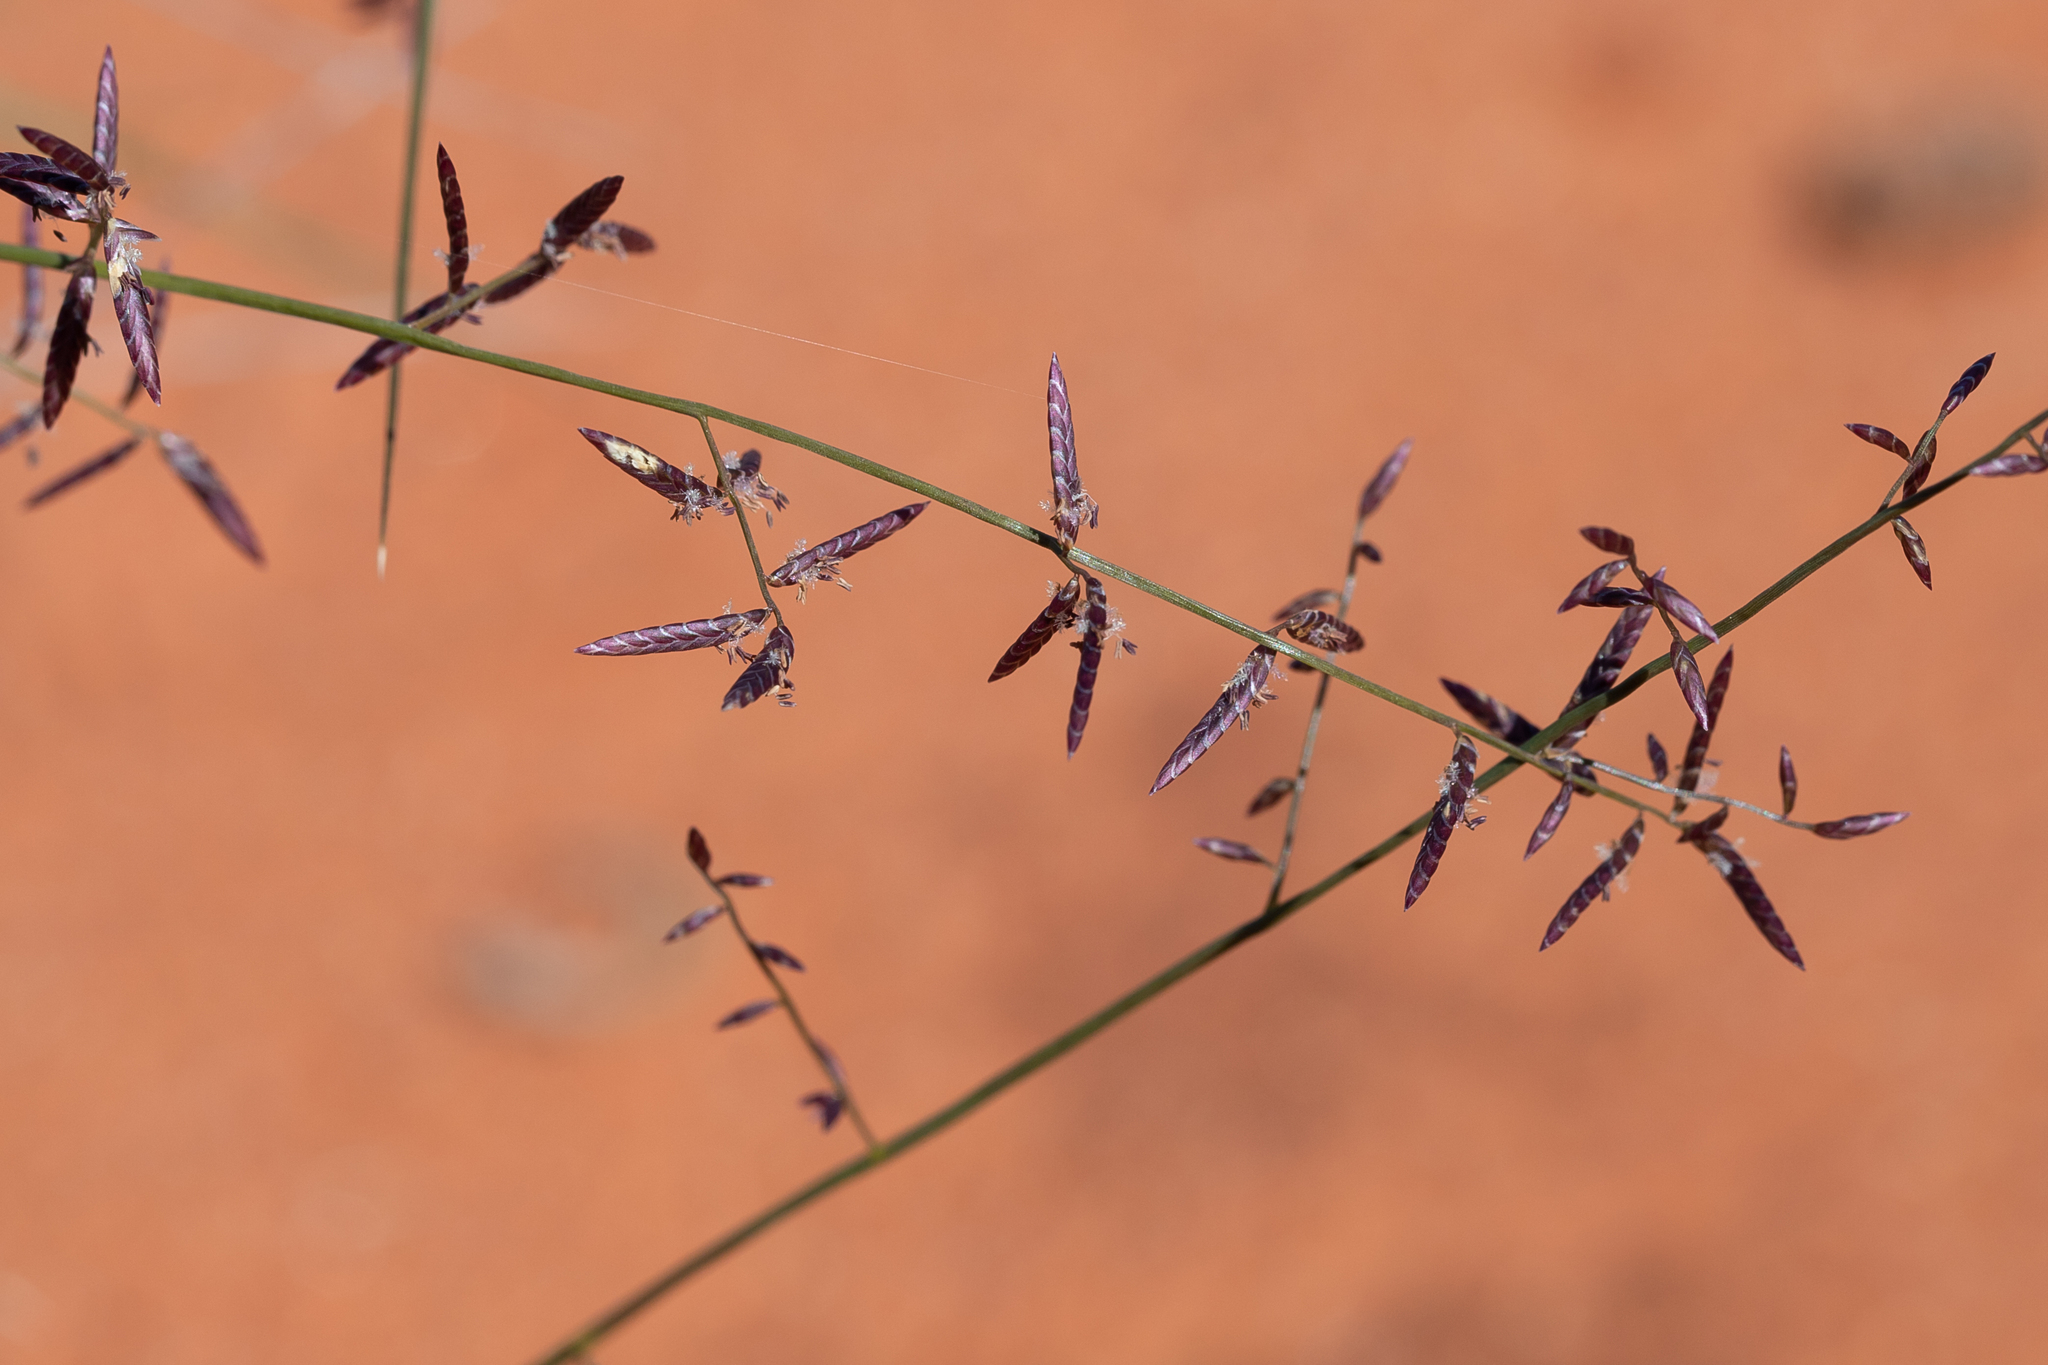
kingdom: Plantae
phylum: Tracheophyta
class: Liliopsida
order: Poales
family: Poaceae
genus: Eragrostis
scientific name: Eragrostis eriopoda
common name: Plain neverfail
